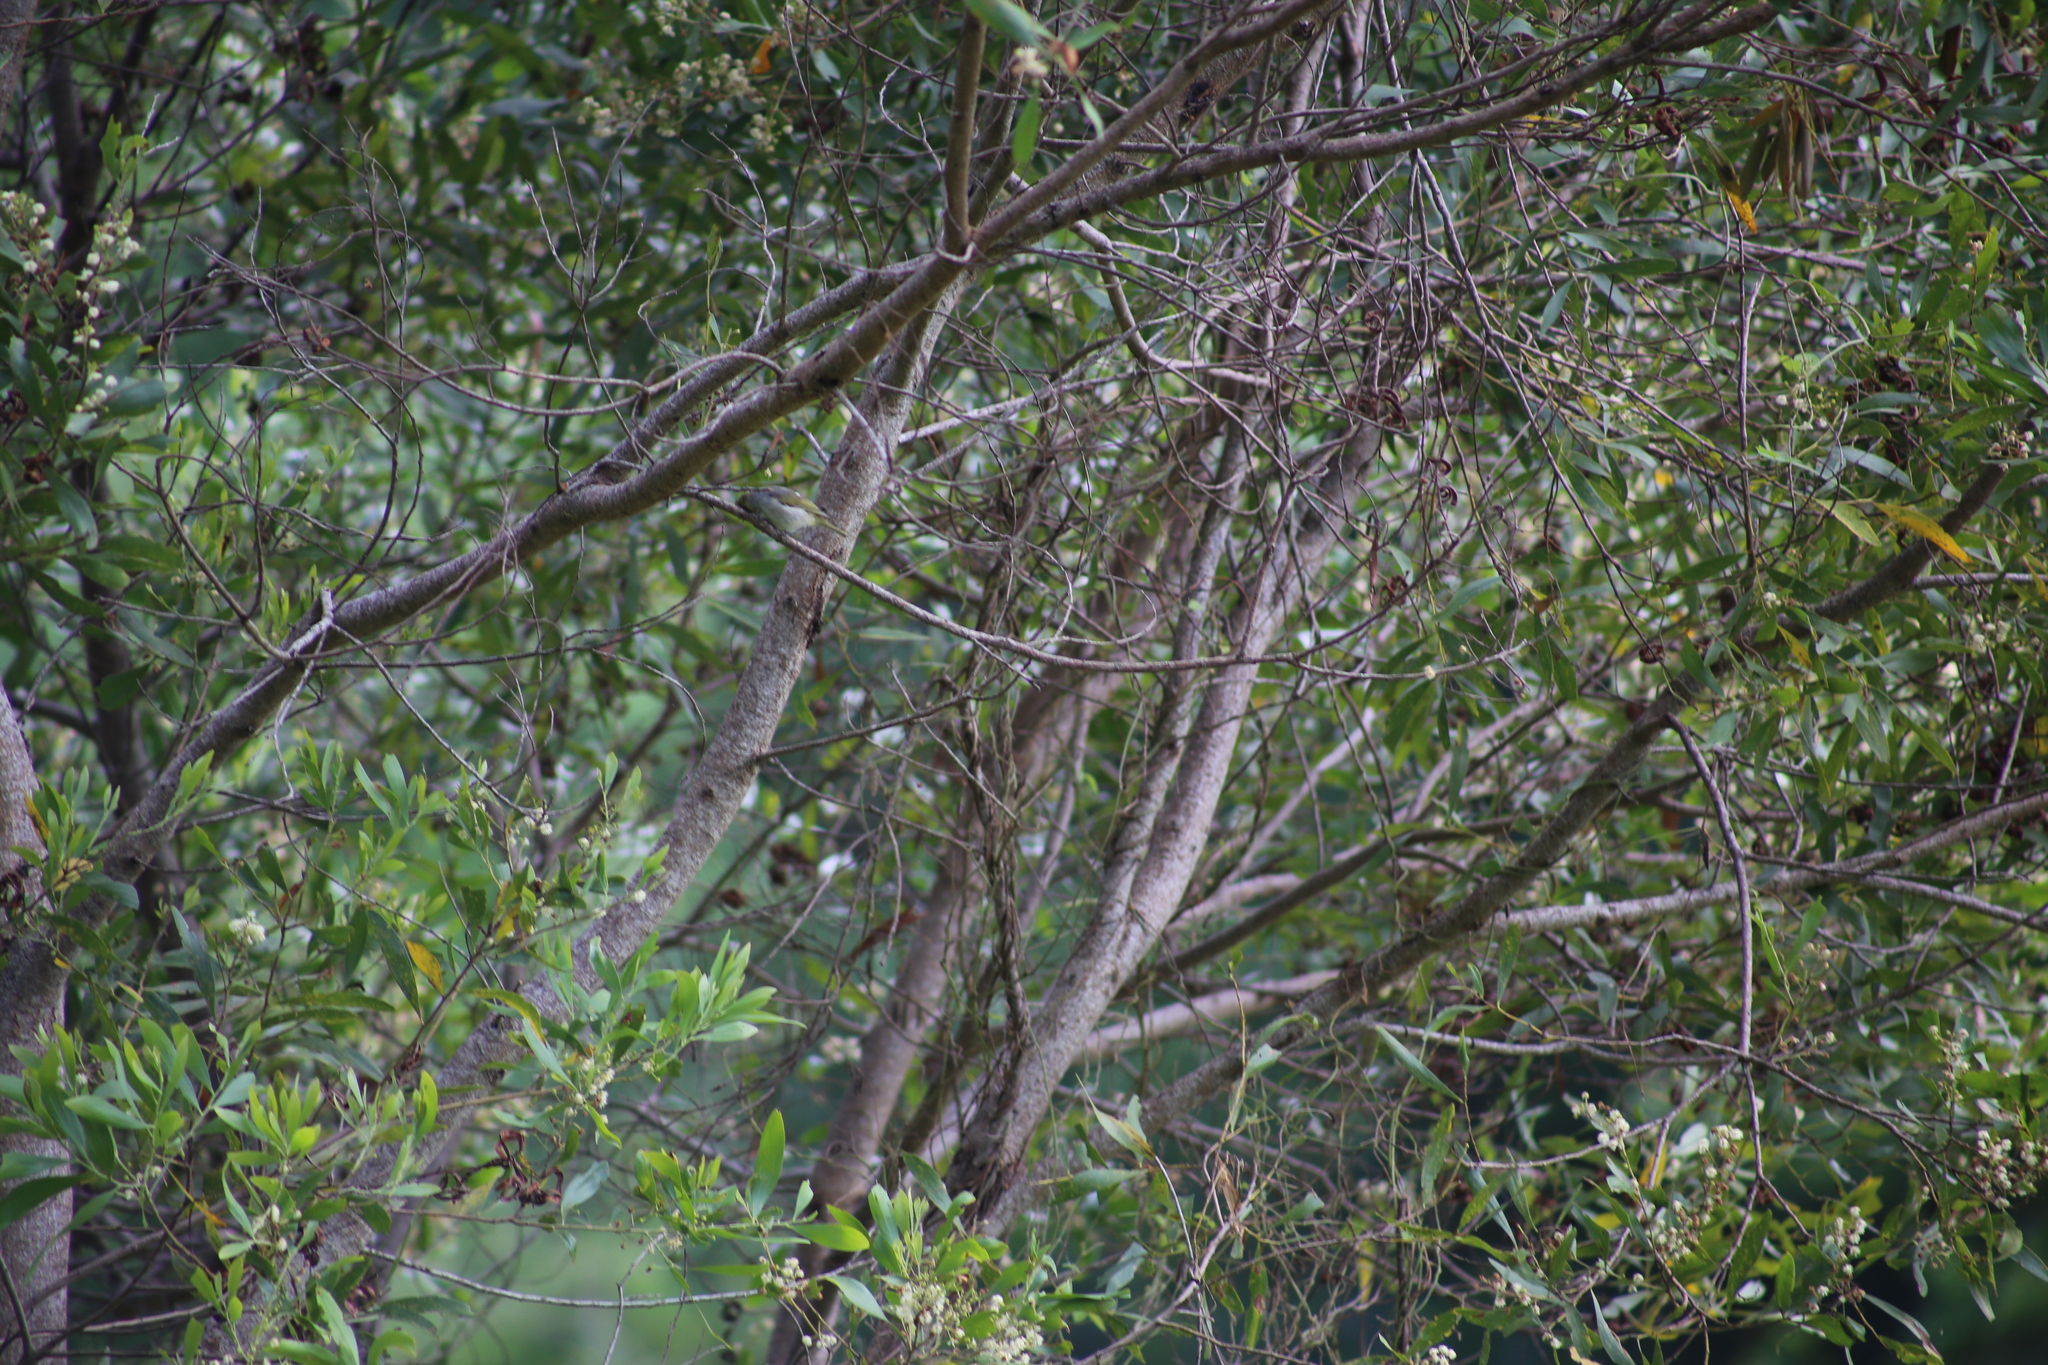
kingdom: Animalia
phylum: Chordata
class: Aves
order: Passeriformes
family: Zosteropidae
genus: Zosterops
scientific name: Zosterops lateralis
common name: Silvereye
